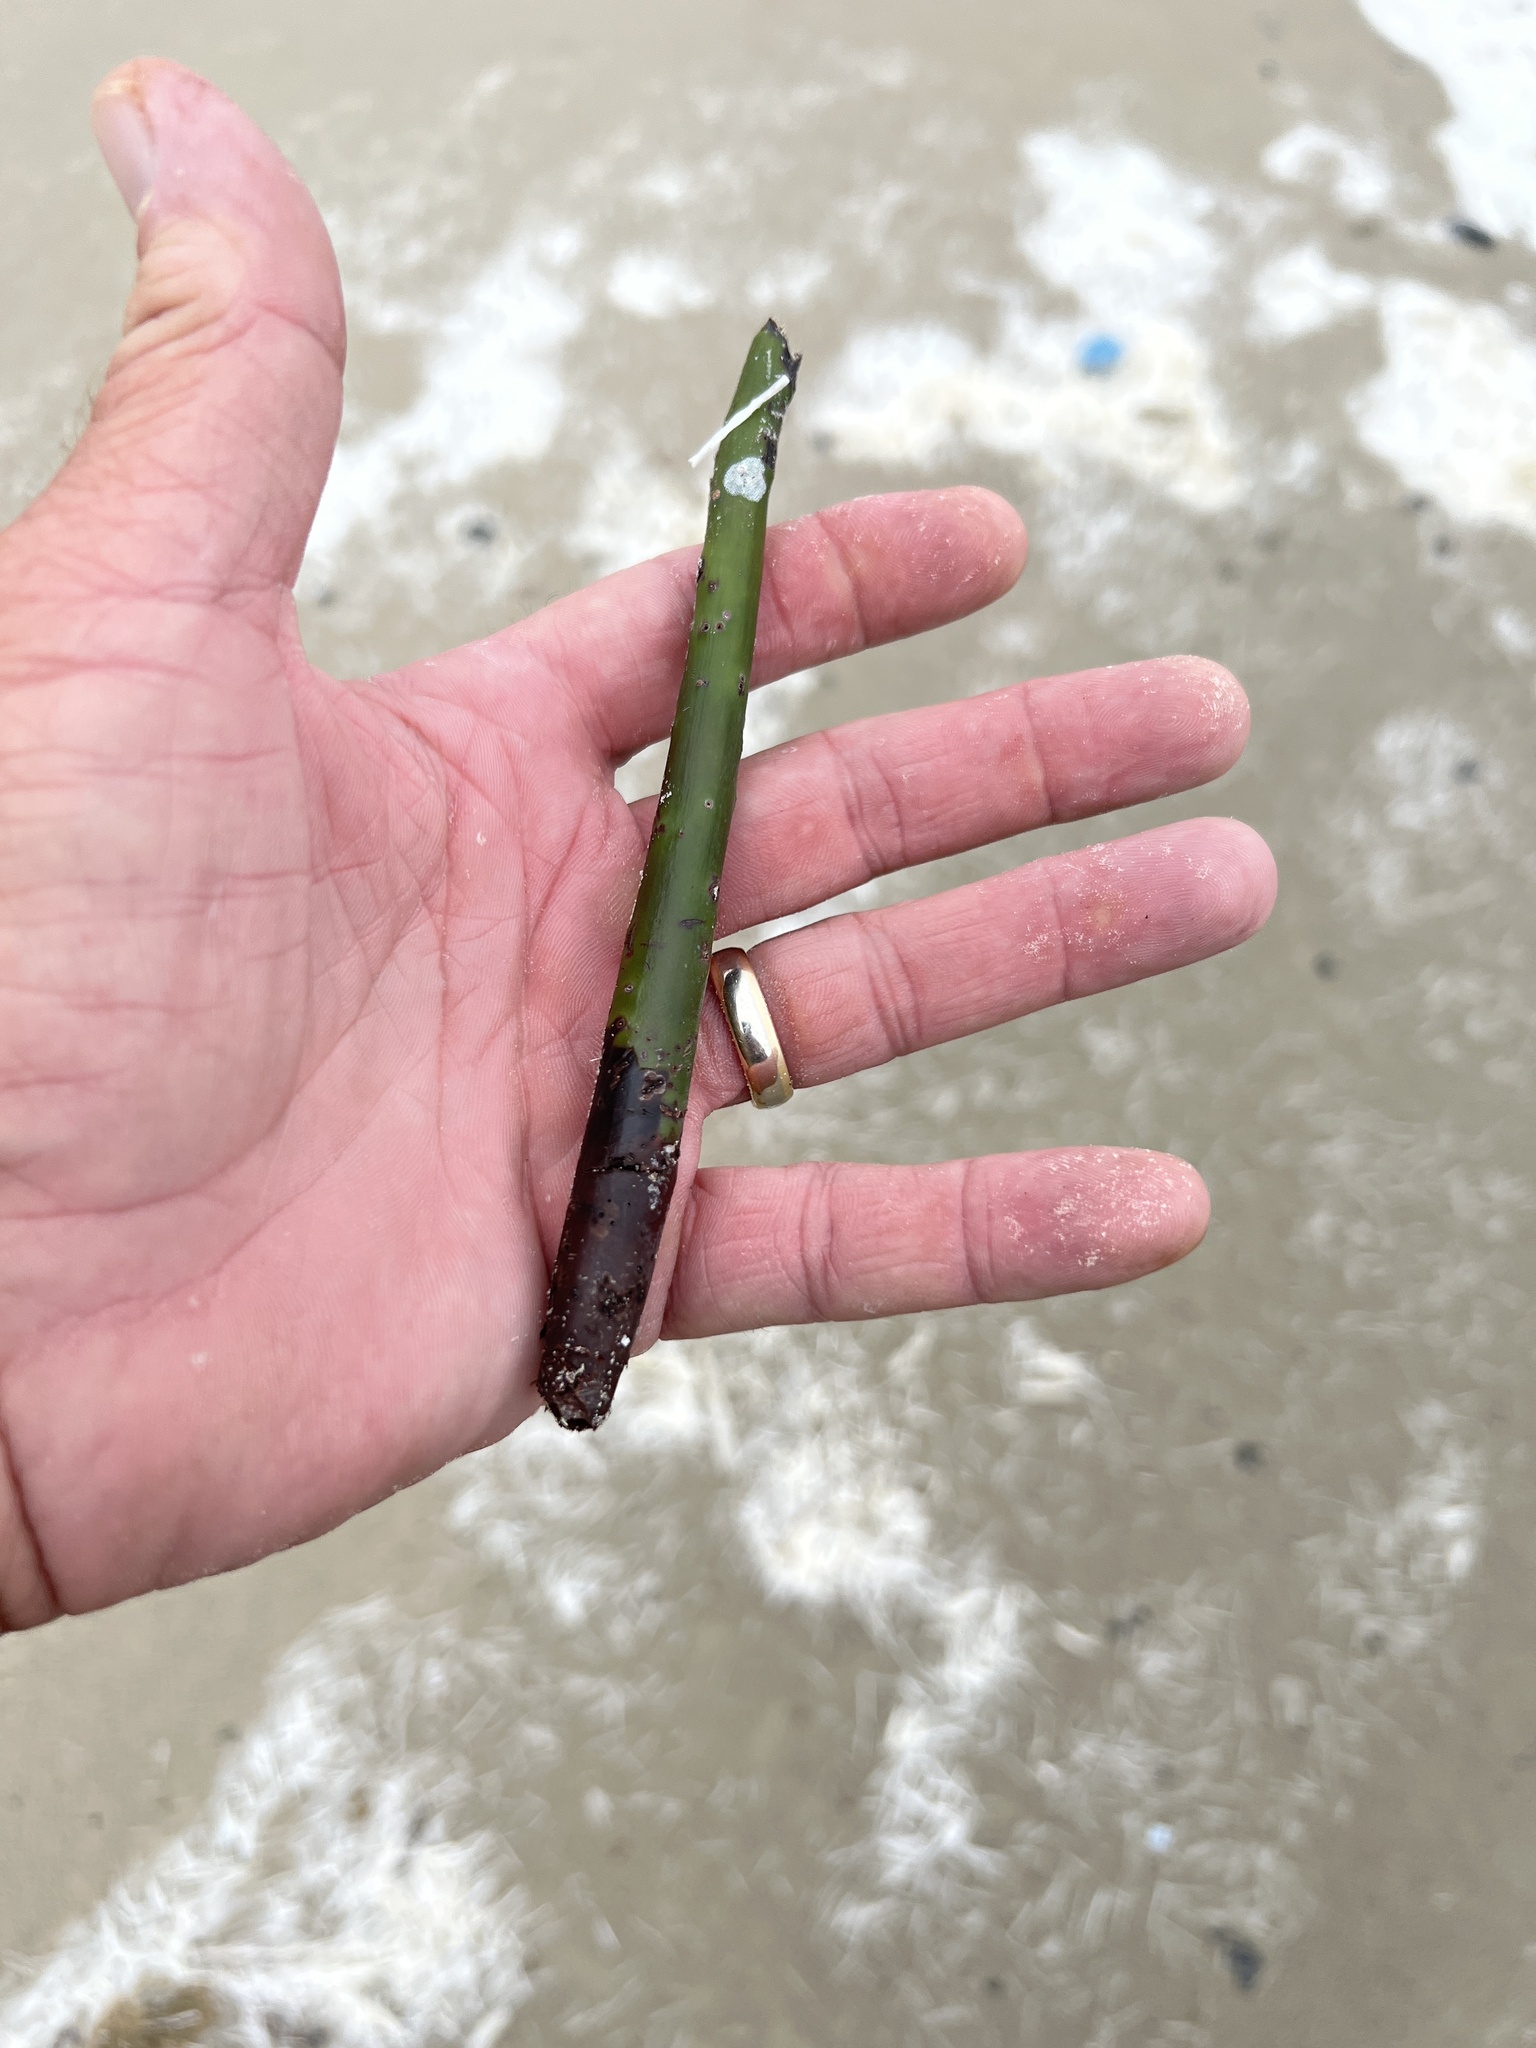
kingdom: Plantae
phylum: Tracheophyta
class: Magnoliopsida
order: Malpighiales
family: Rhizophoraceae
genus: Rhizophora
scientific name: Rhizophora mangle
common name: Red mangrove
